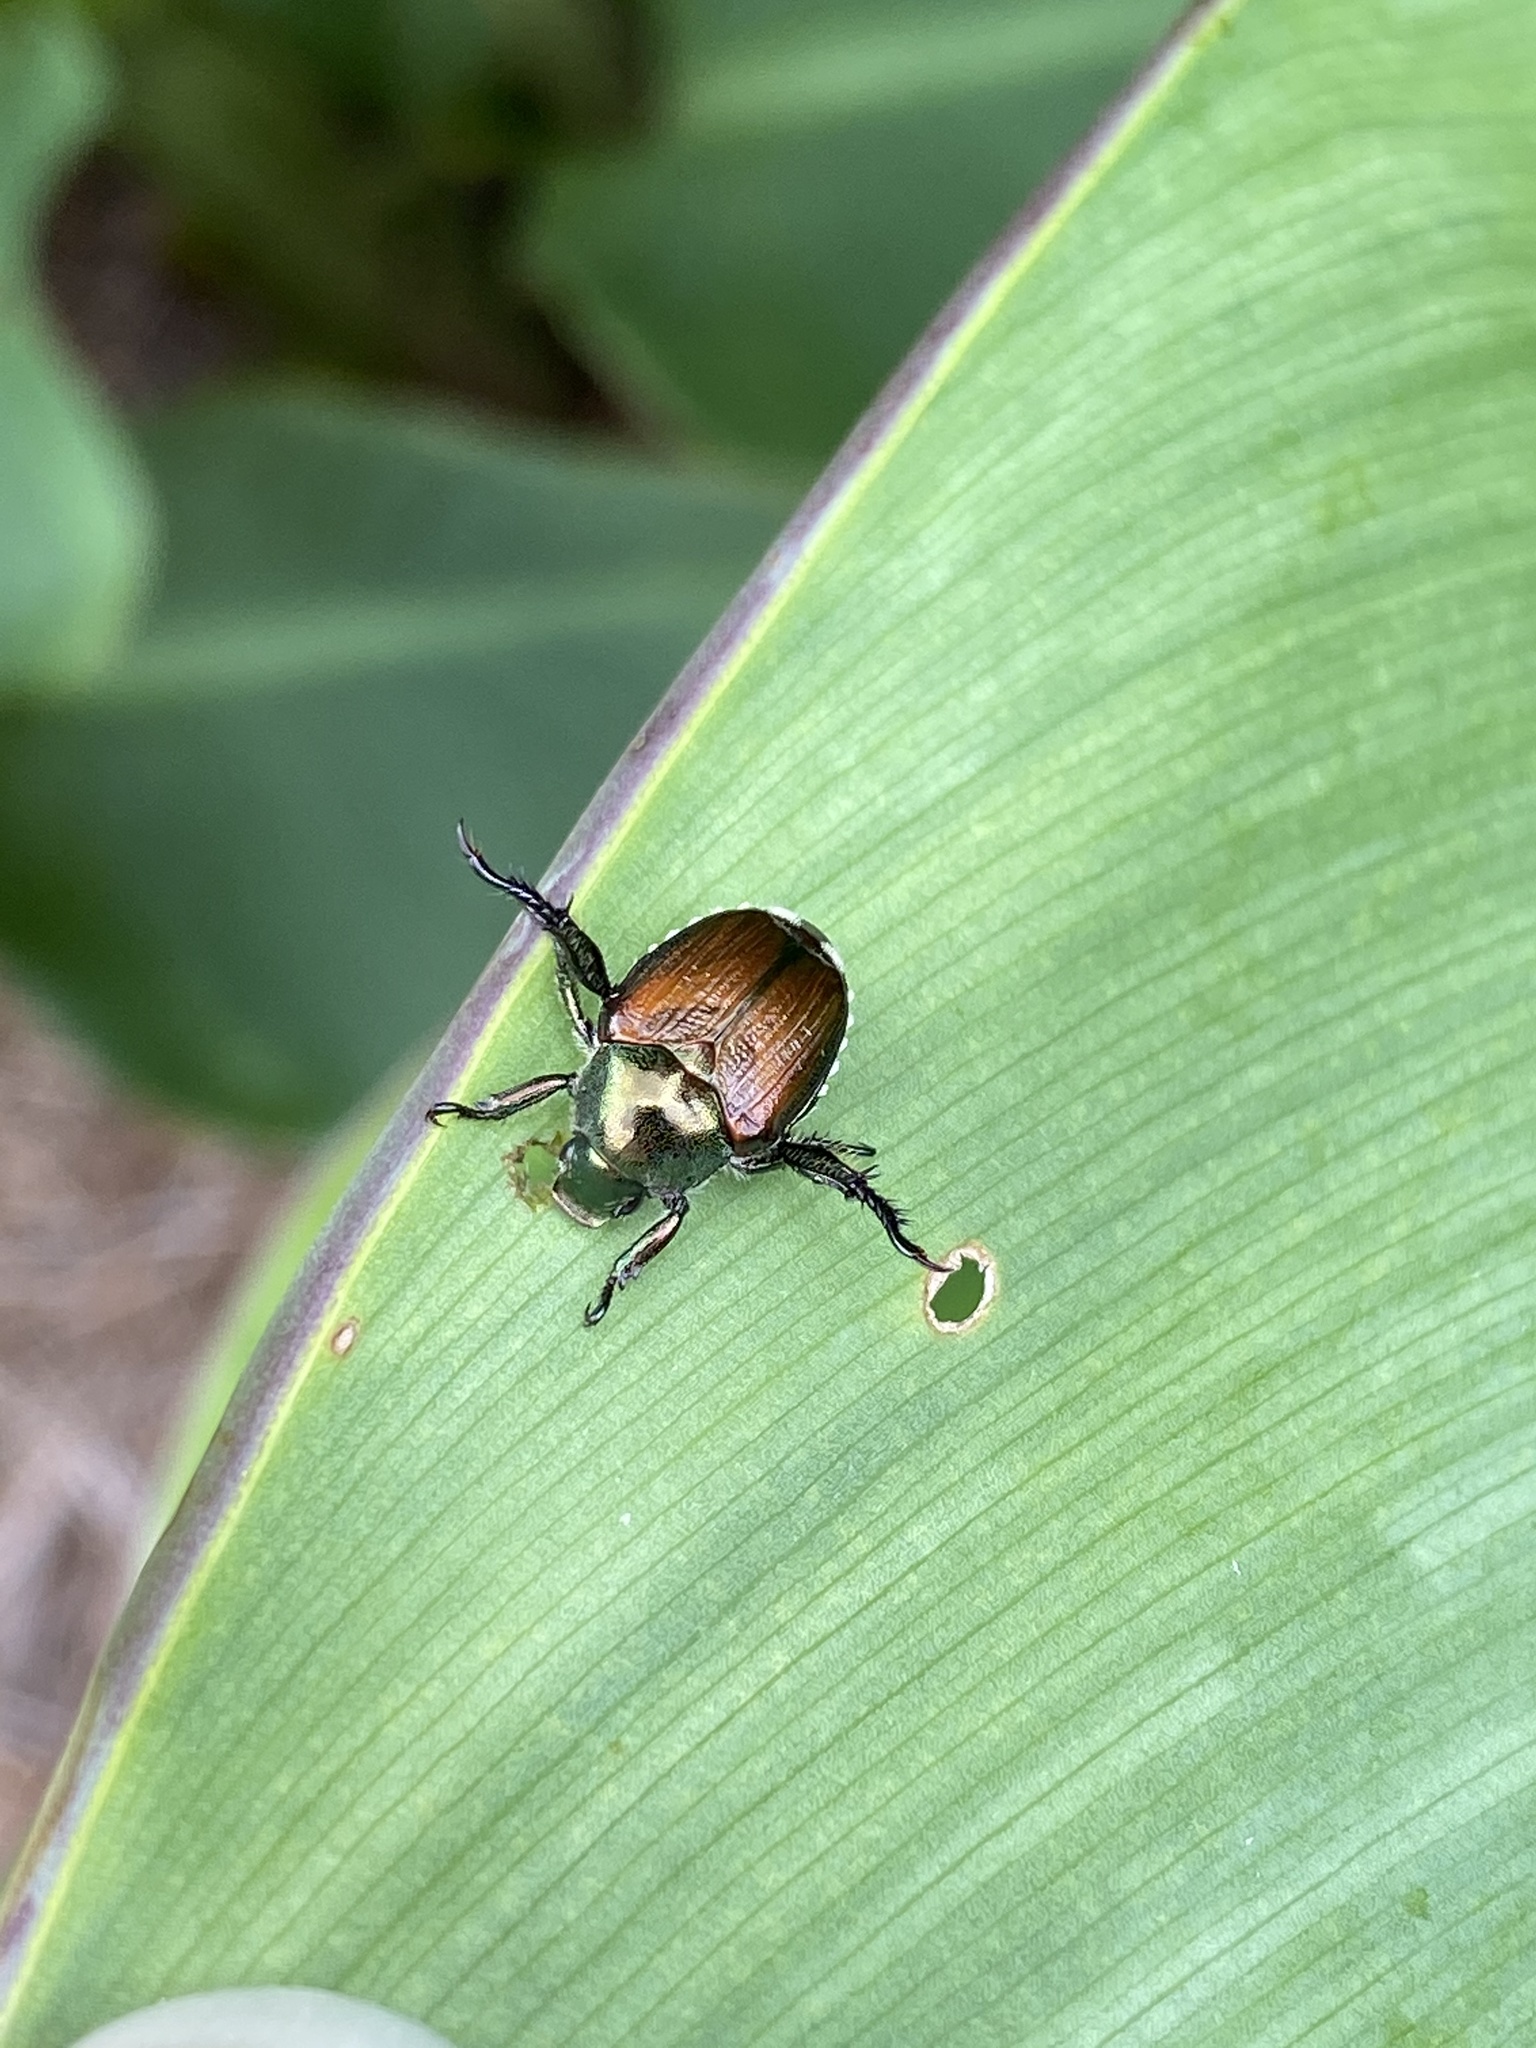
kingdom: Animalia
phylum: Arthropoda
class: Insecta
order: Coleoptera
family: Scarabaeidae
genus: Popillia
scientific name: Popillia japonica
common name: Japanese beetle
